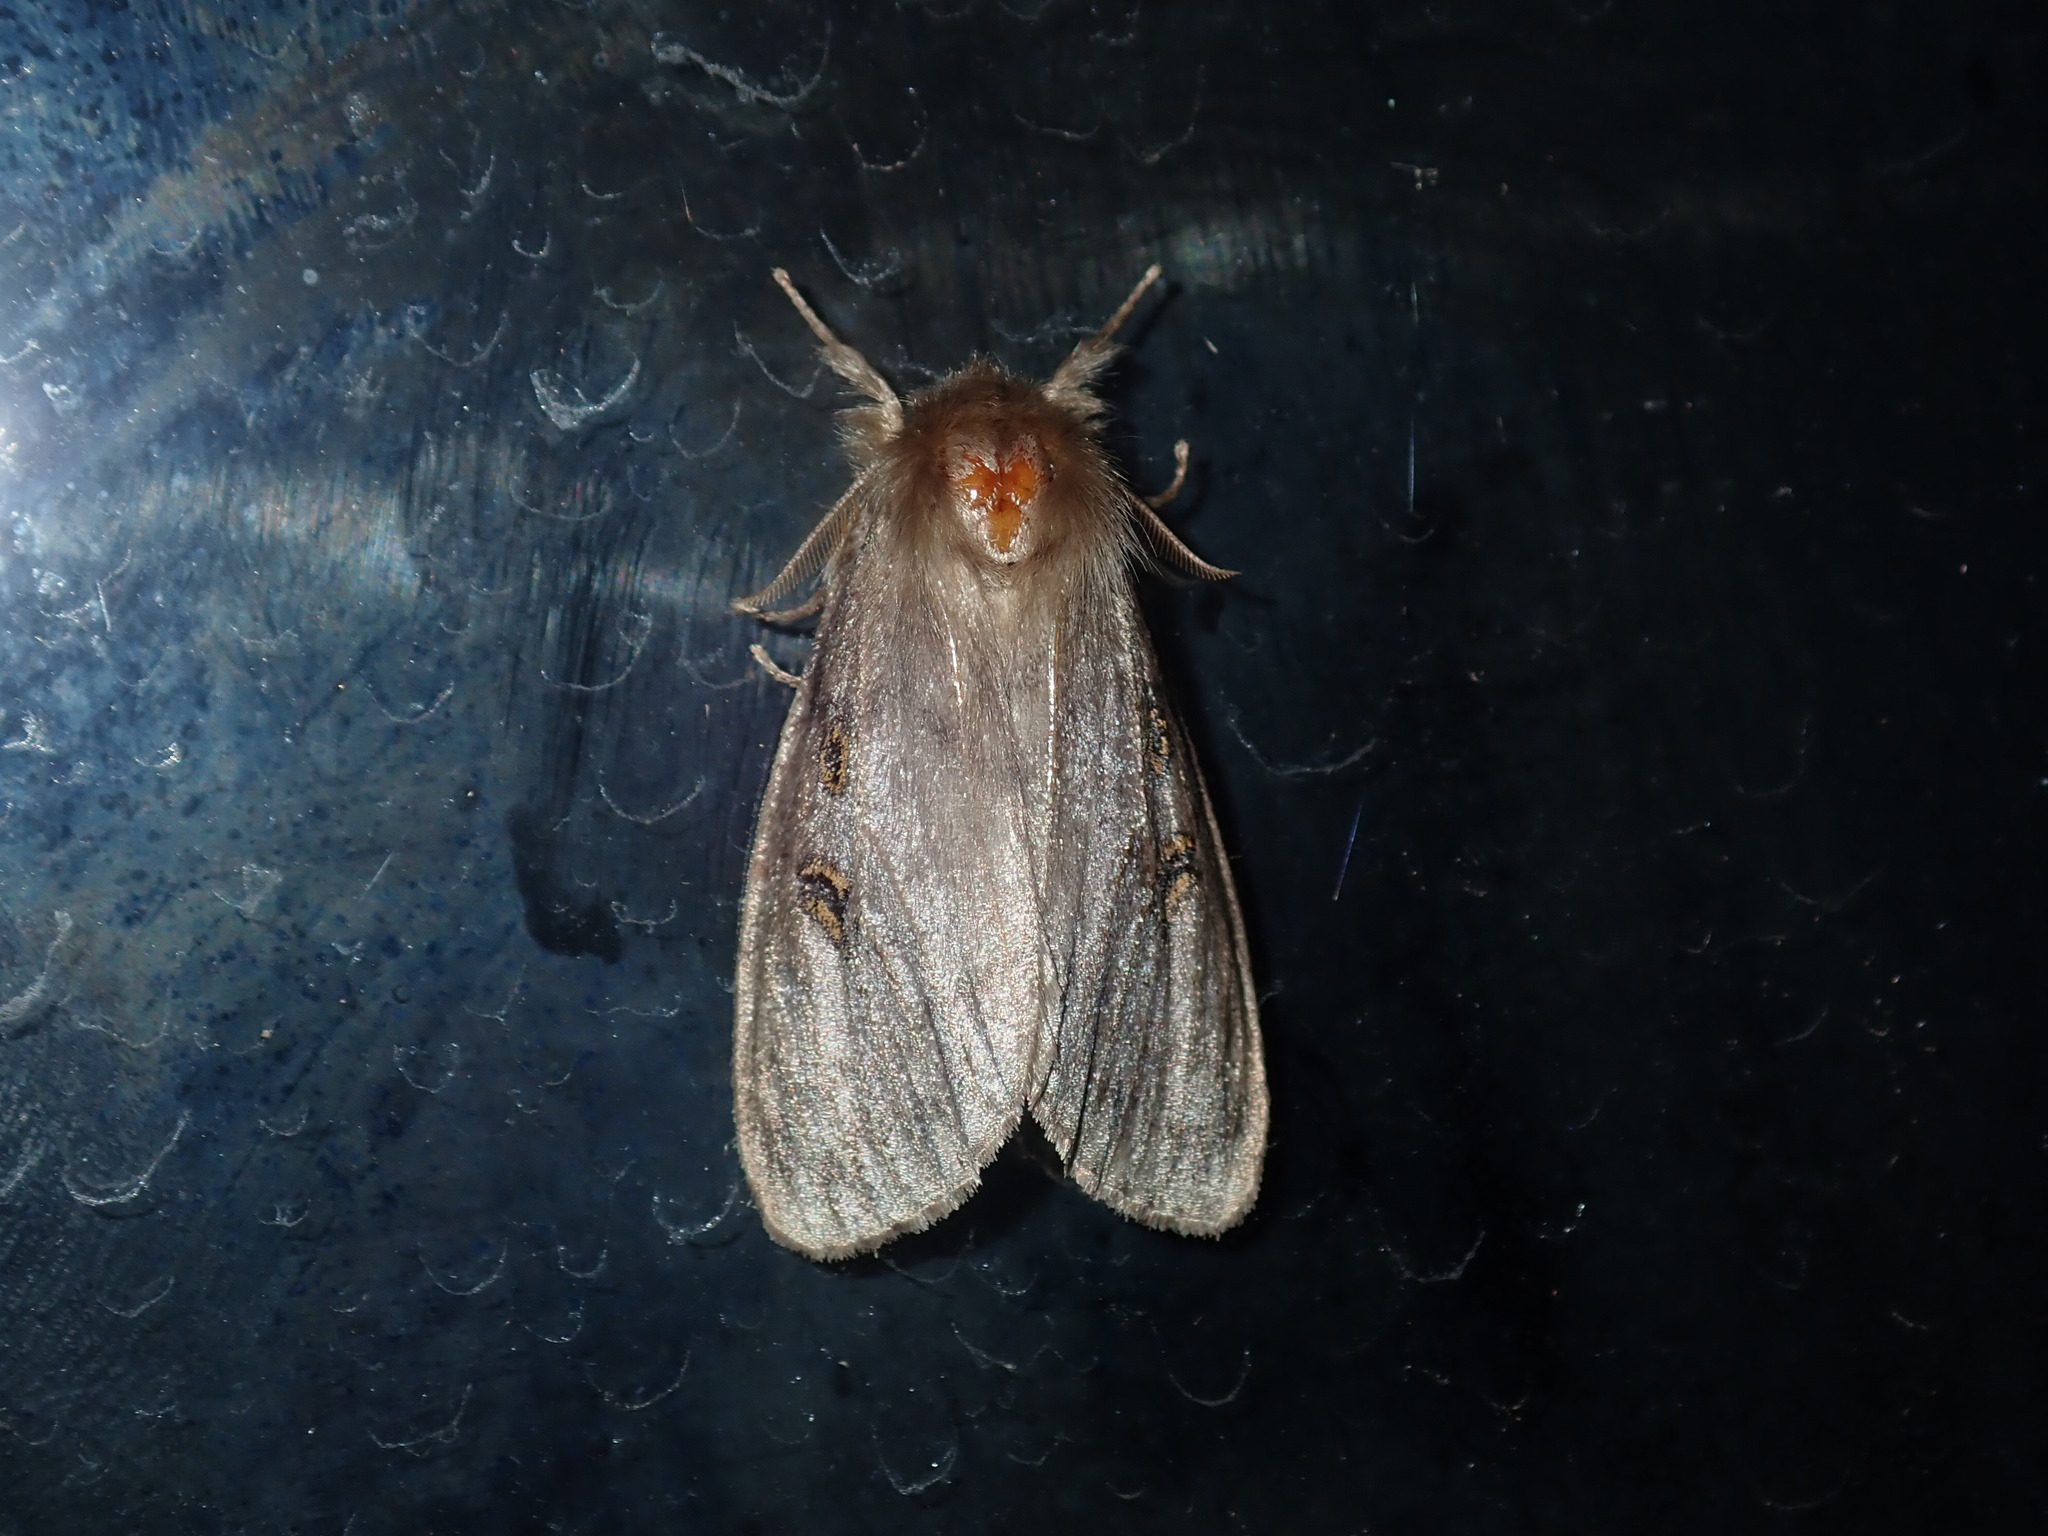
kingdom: Animalia
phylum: Arthropoda
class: Insecta
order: Lepidoptera
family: Erebidae
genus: Leptocneria
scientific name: Leptocneria reducta
